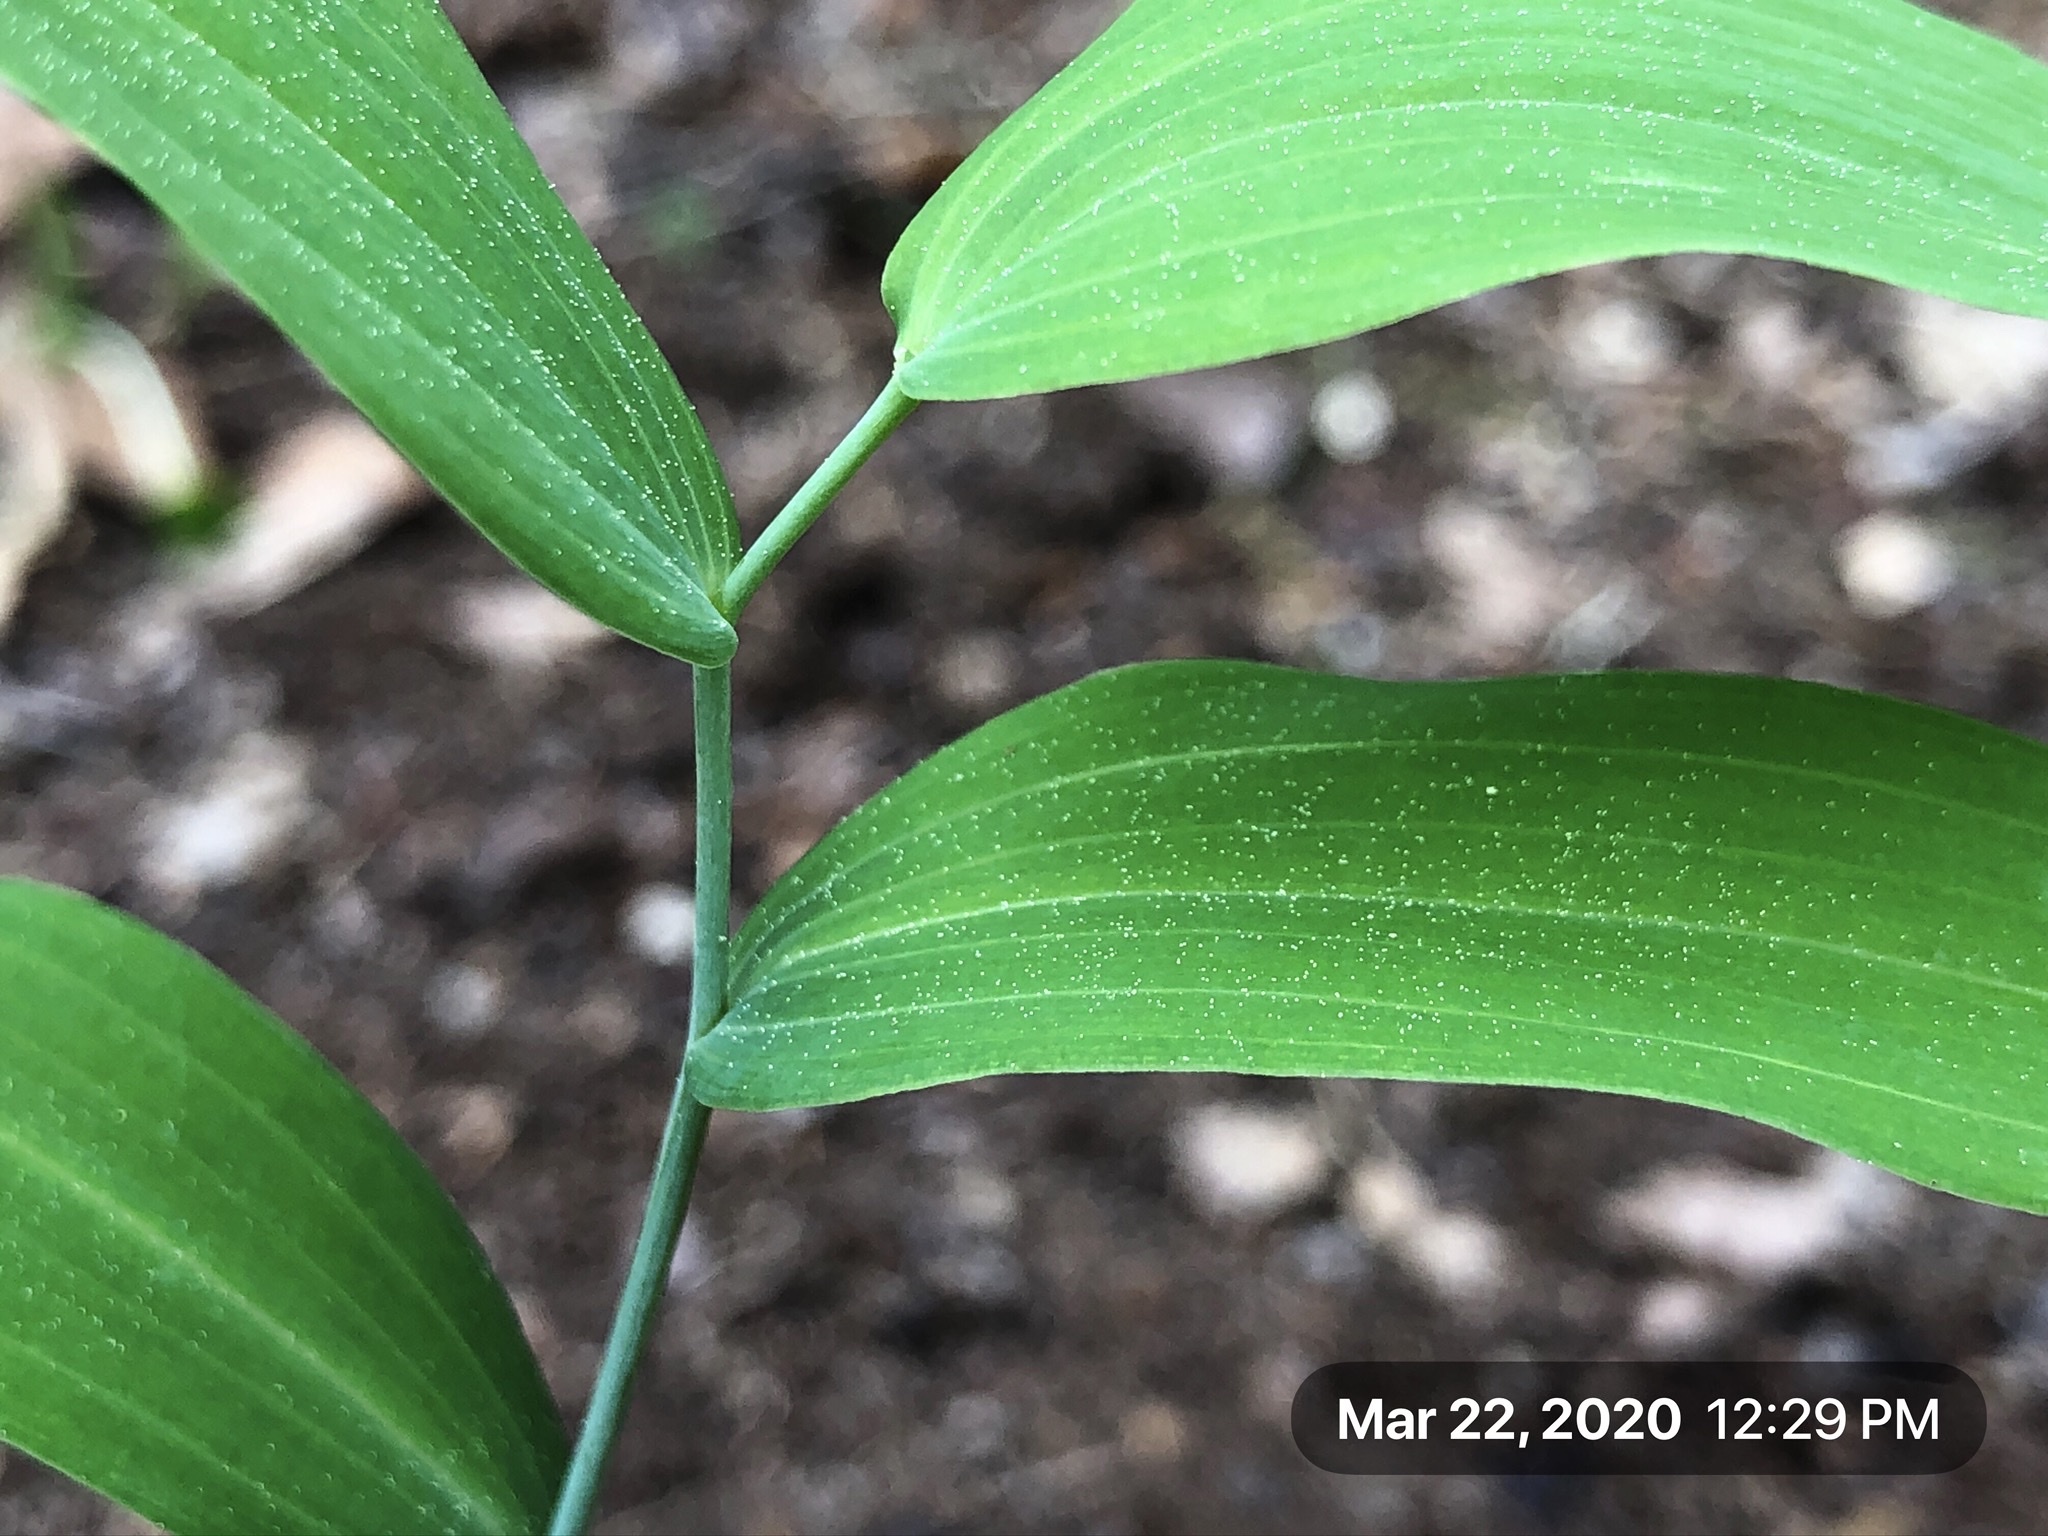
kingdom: Plantae
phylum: Tracheophyta
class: Liliopsida
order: Asparagales
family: Asparagaceae
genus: Polygonatum
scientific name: Polygonatum biflorum
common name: American solomon's-seal
